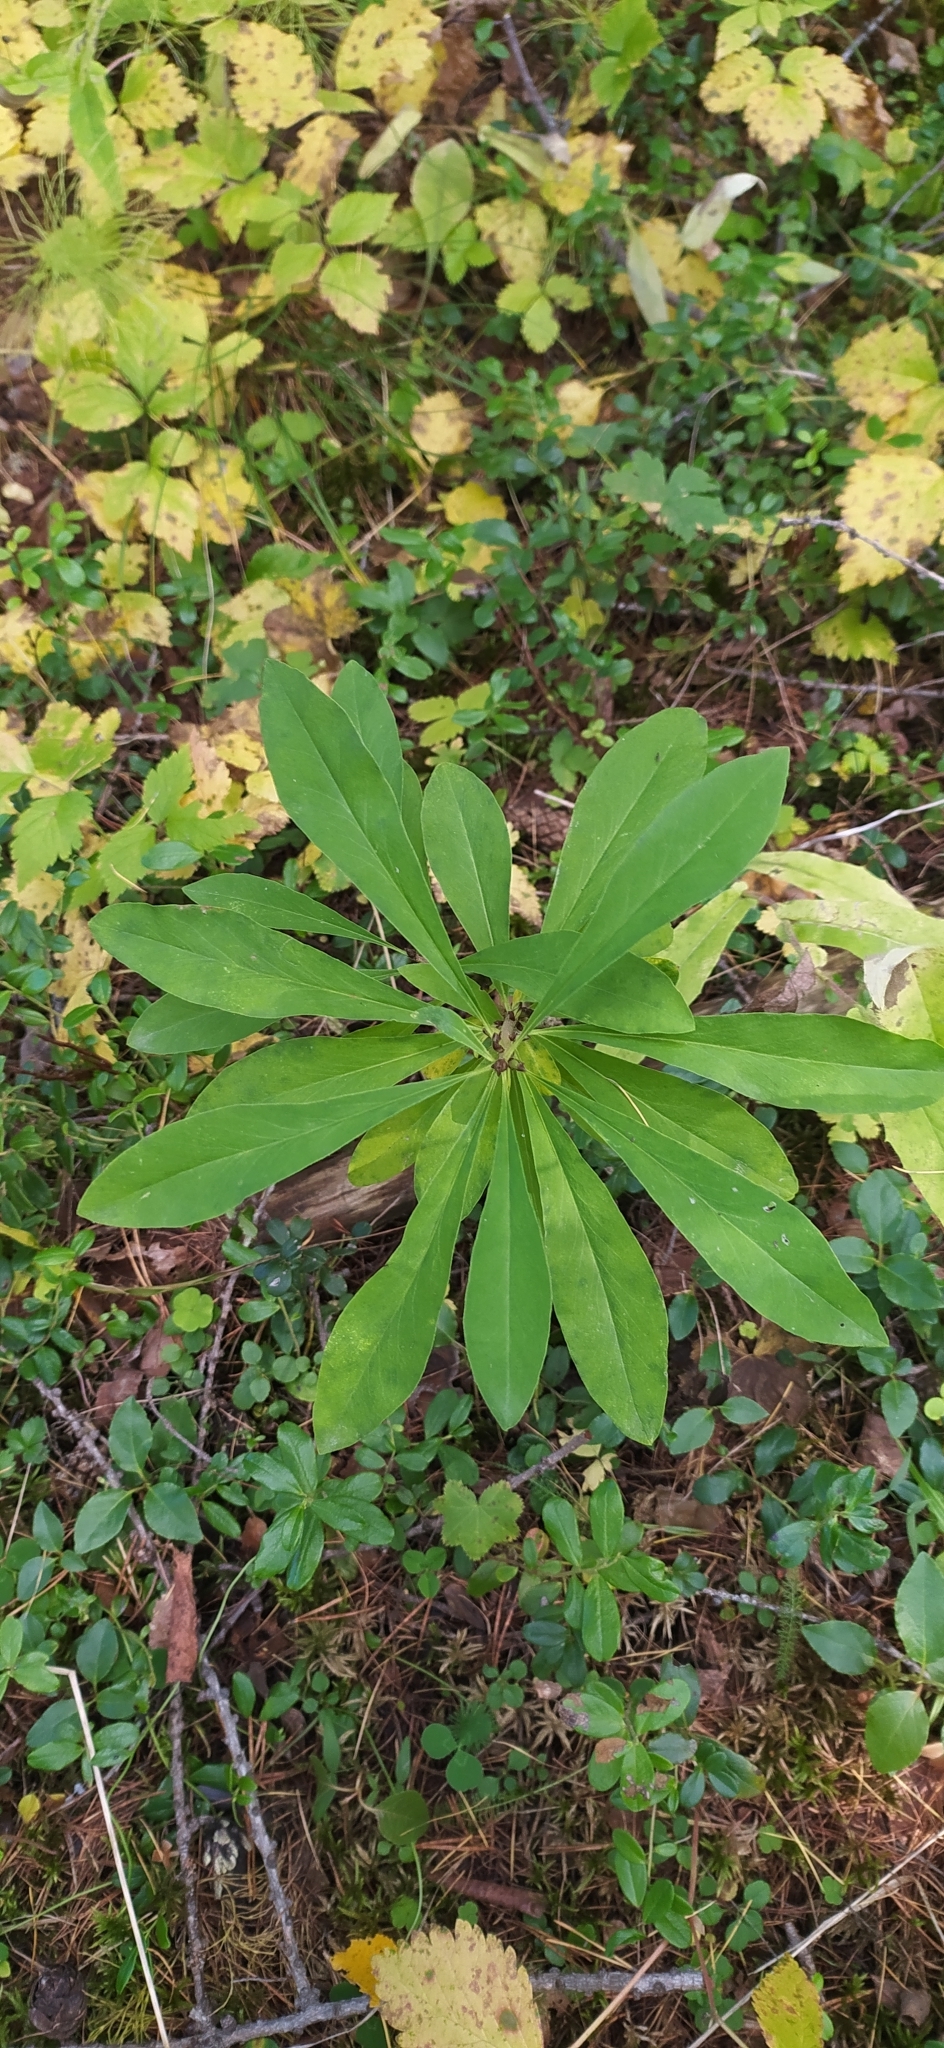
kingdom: Plantae
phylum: Tracheophyta
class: Magnoliopsida
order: Malvales
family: Thymelaeaceae
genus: Daphne
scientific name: Daphne mezereum
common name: Mezereon
